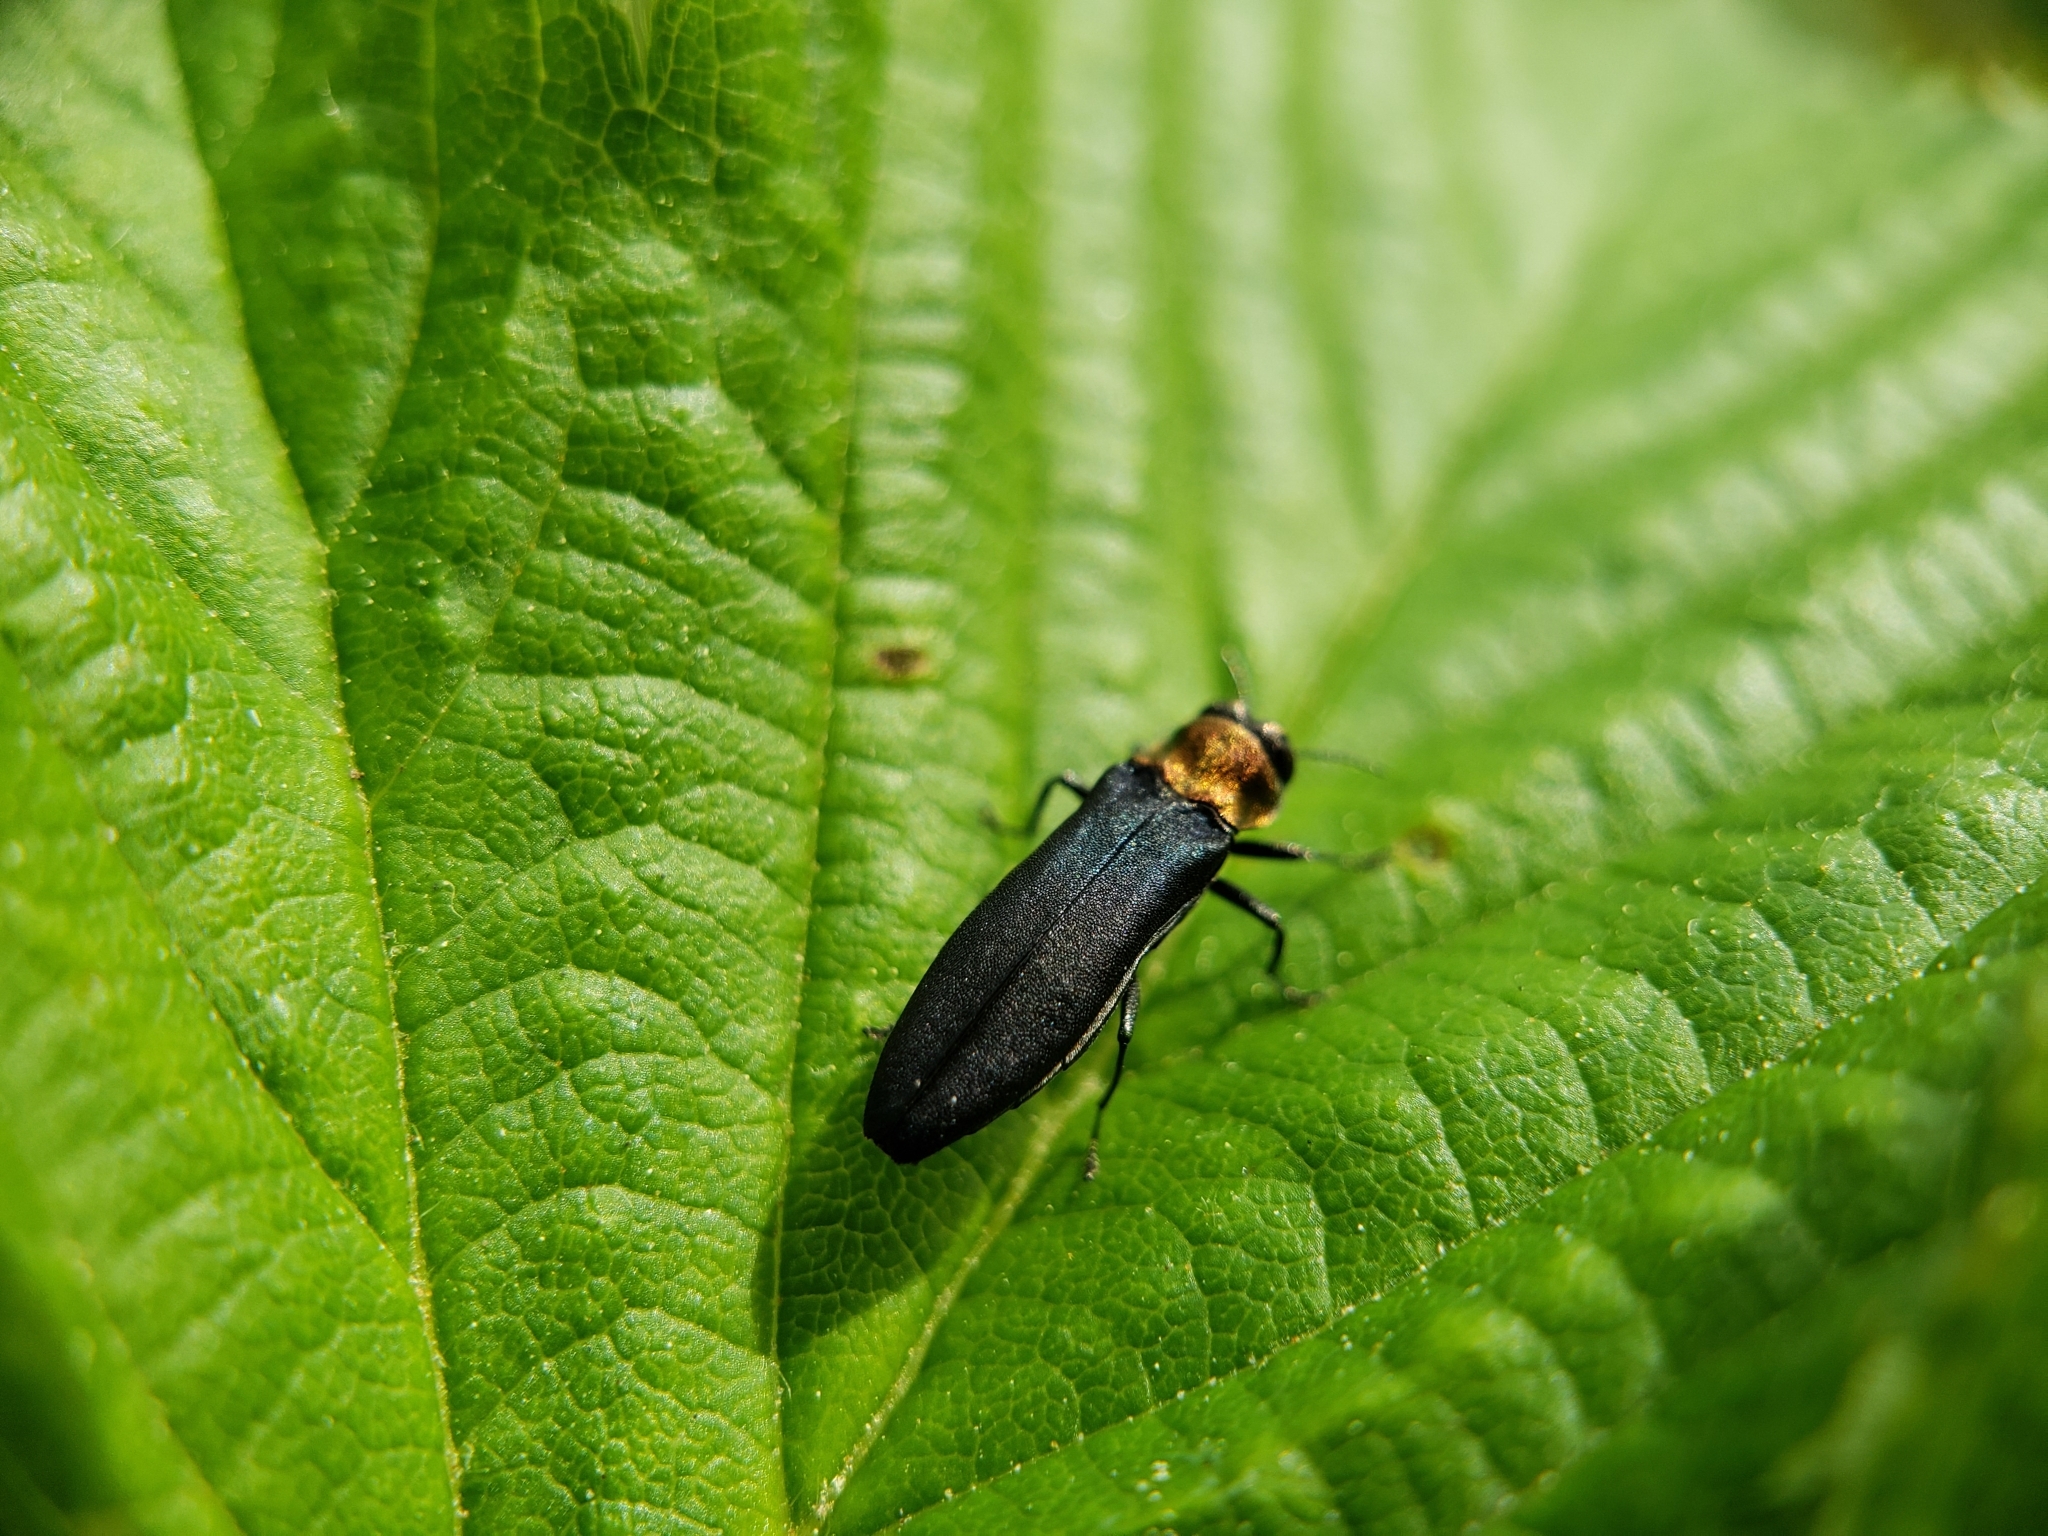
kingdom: Animalia
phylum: Arthropoda
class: Insecta
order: Coleoptera
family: Buprestidae
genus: Agrilus
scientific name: Agrilus ruficollis
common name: Red-necked cane borer beetle
